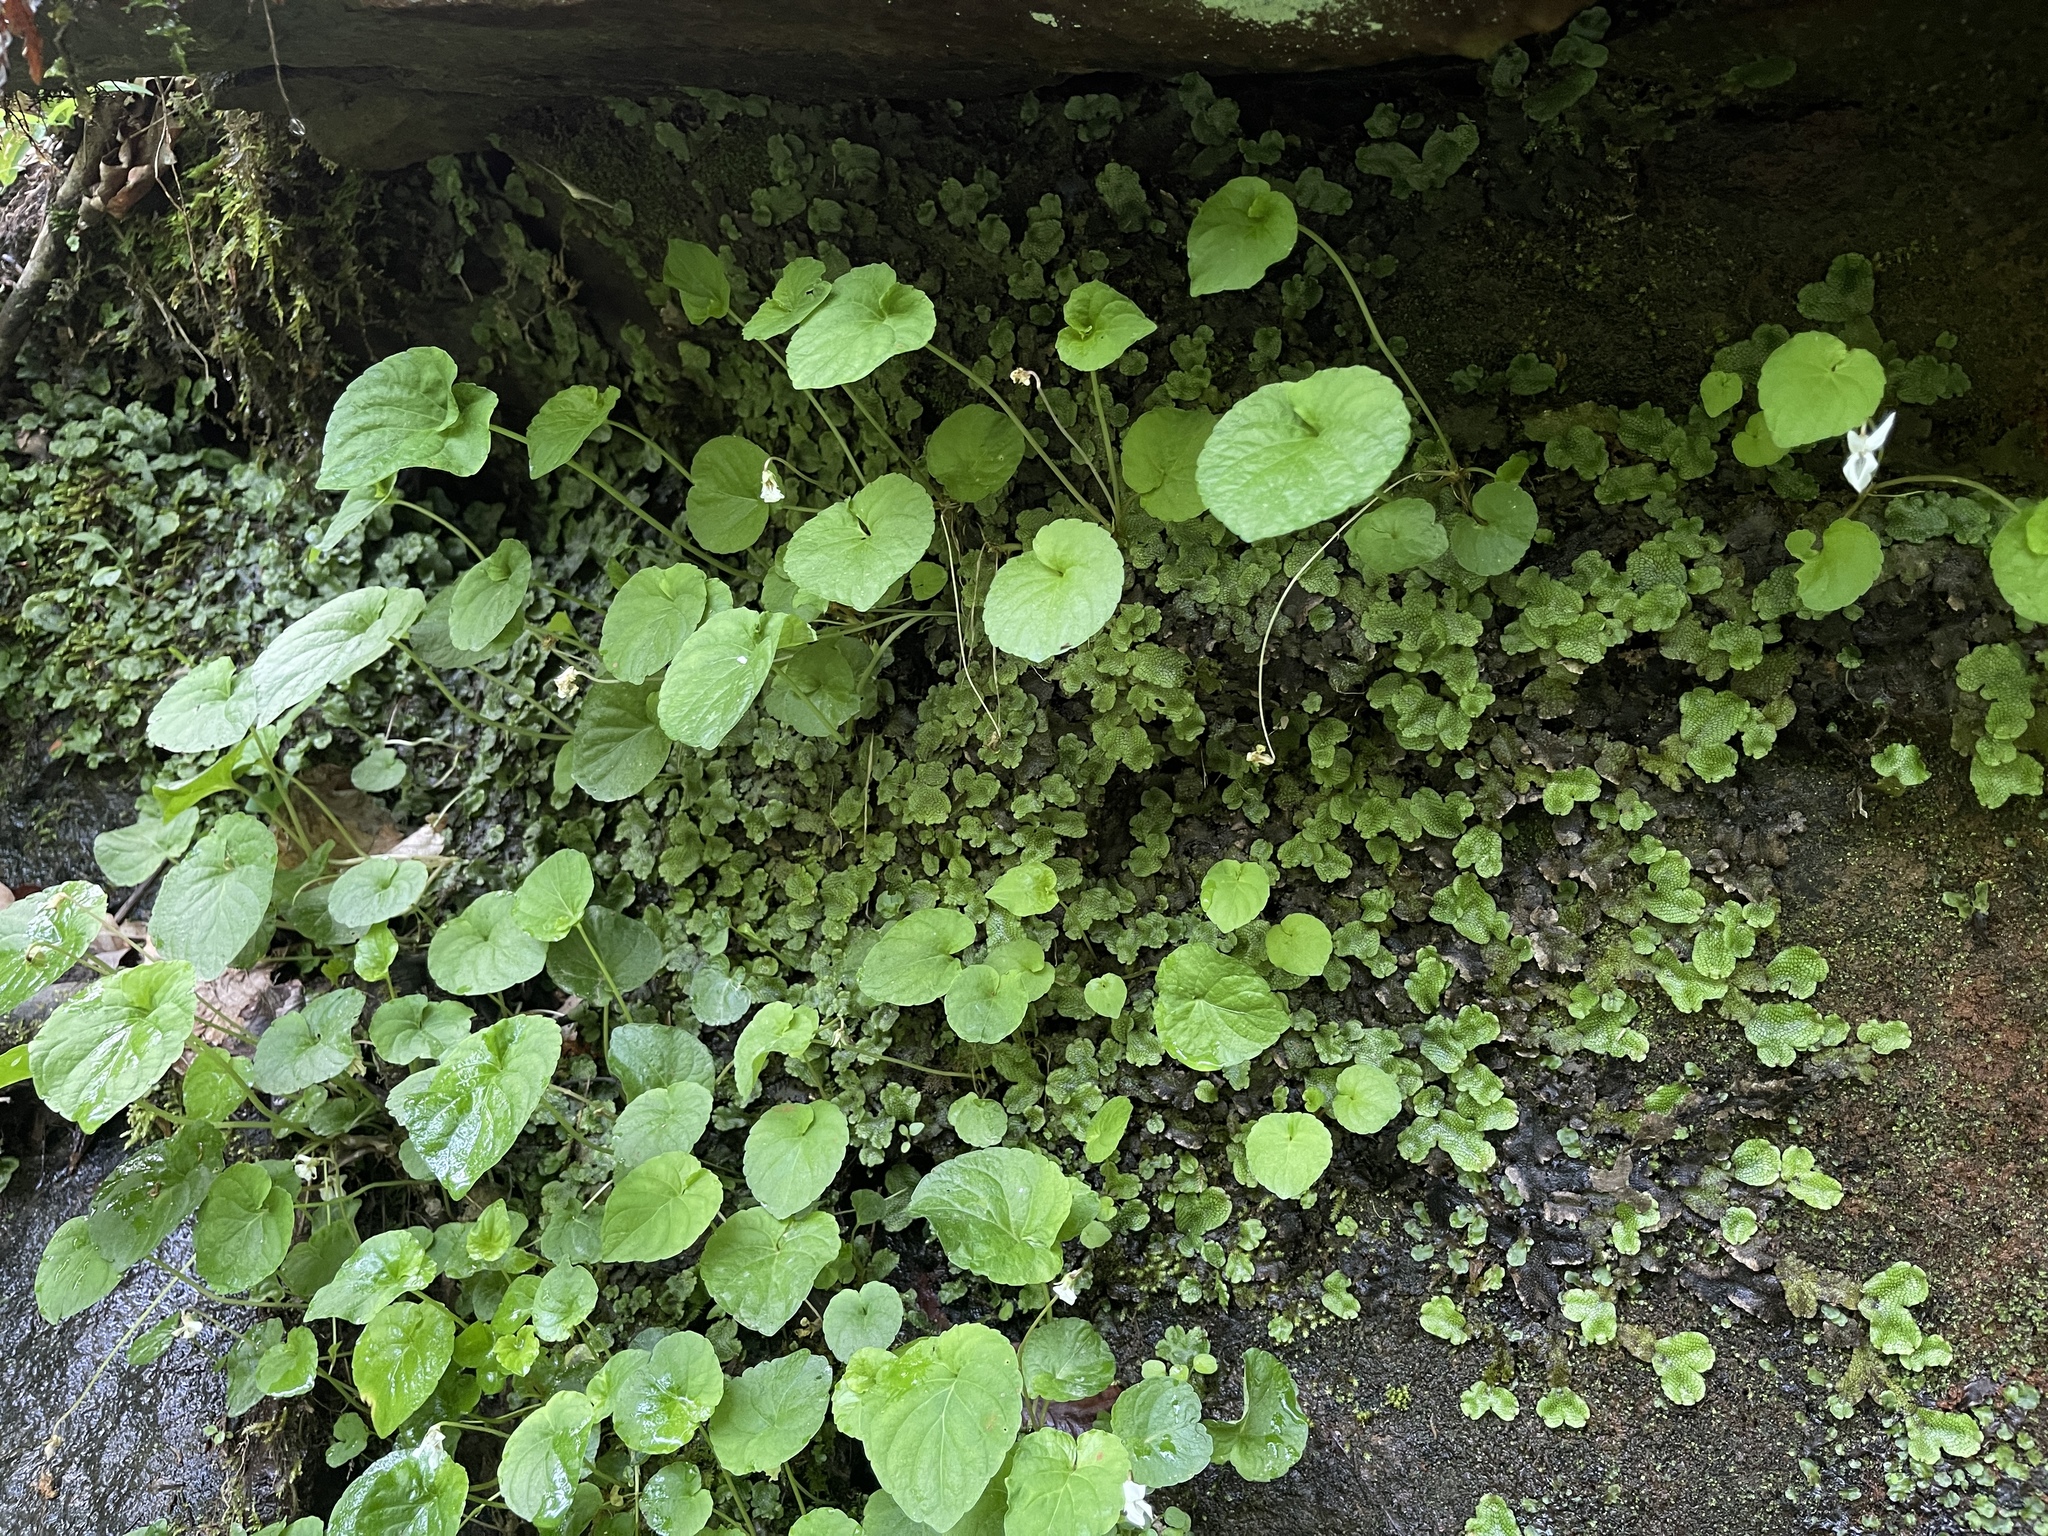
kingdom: Plantae
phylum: Tracheophyta
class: Magnoliopsida
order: Malpighiales
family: Violaceae
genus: Viola
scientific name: Viola blanda
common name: Sweet white violet
